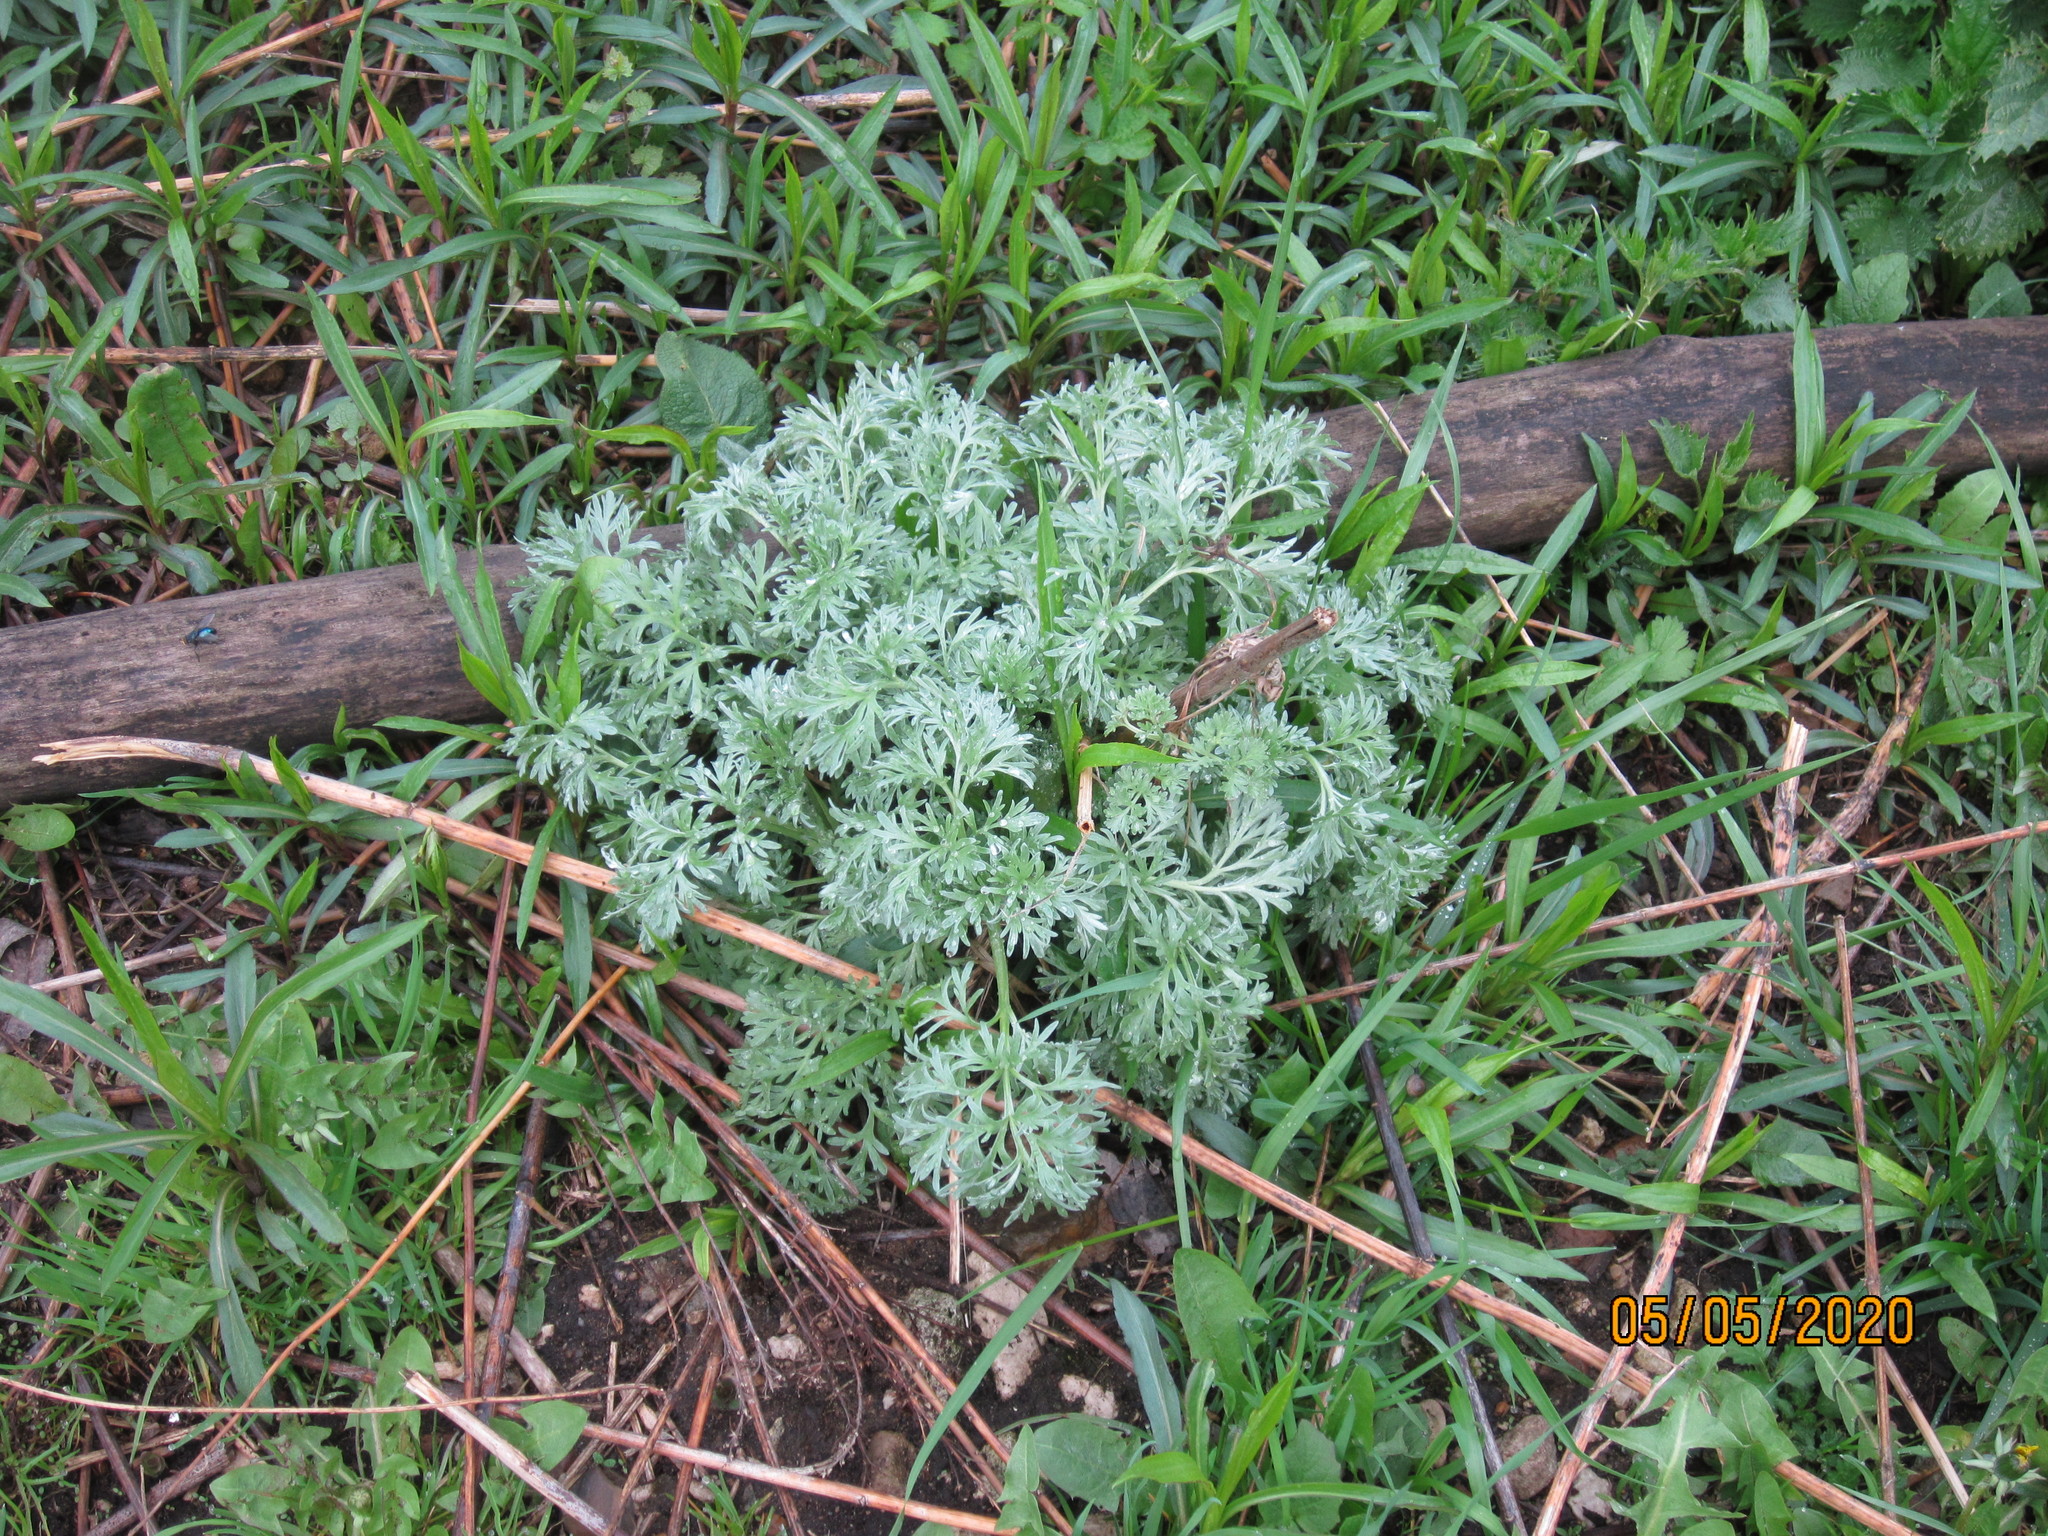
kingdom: Plantae
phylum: Tracheophyta
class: Magnoliopsida
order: Asterales
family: Asteraceae
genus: Artemisia
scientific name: Artemisia absinthium
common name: Wormwood
